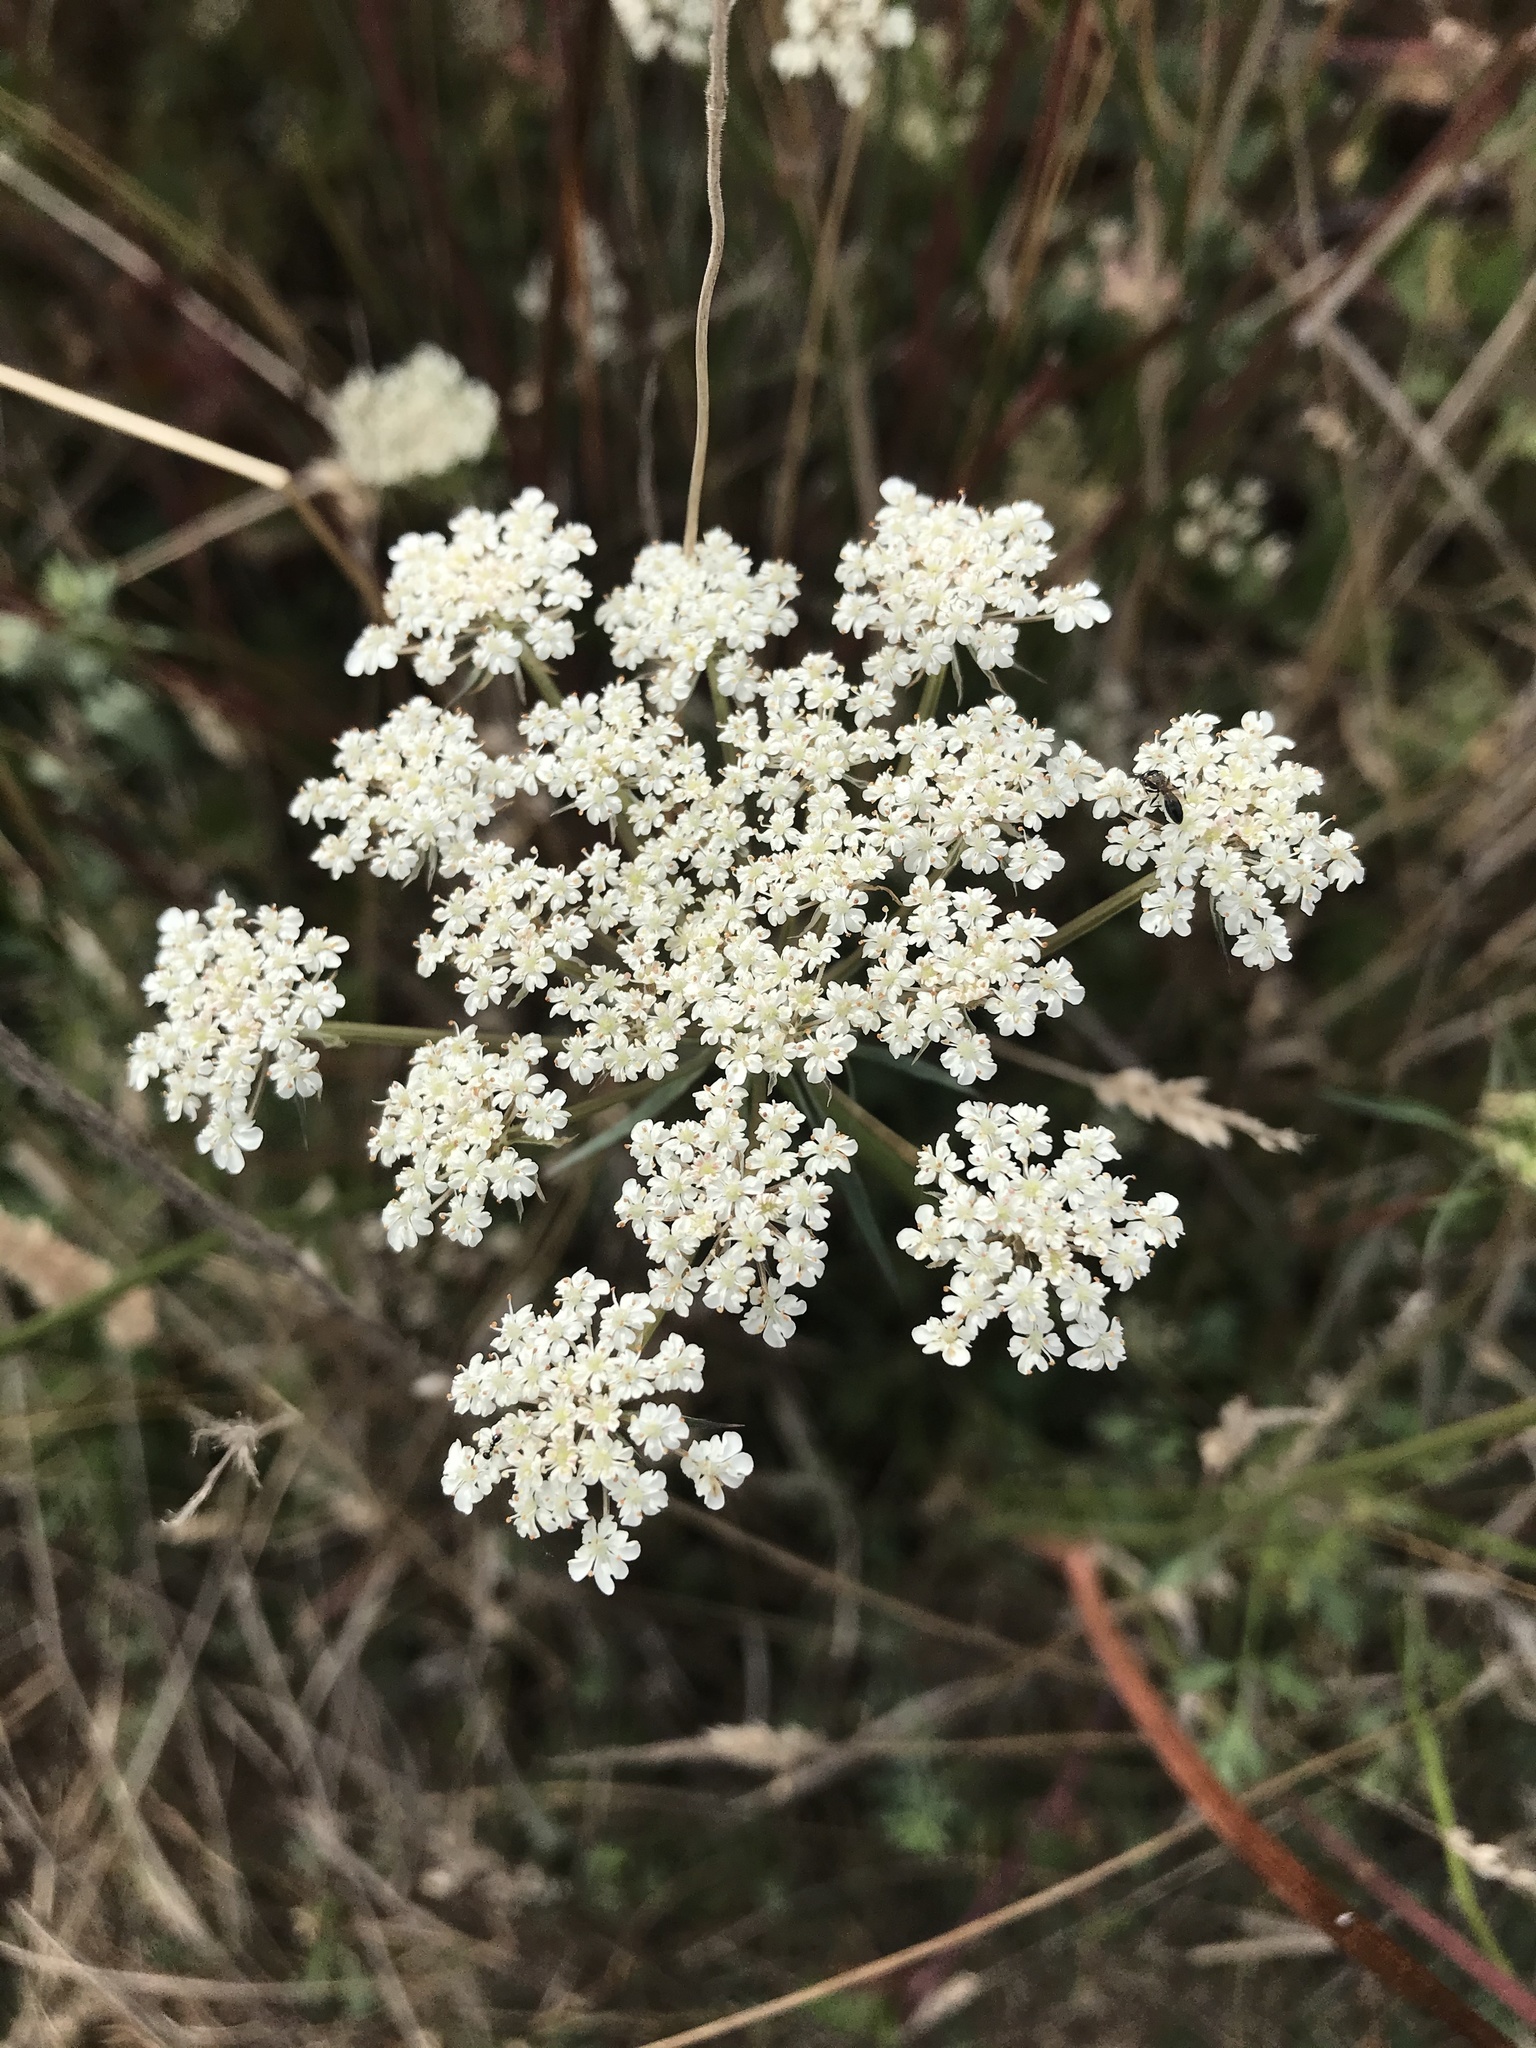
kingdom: Plantae
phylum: Tracheophyta
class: Magnoliopsida
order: Apiales
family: Apiaceae
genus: Daucus
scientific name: Daucus carota
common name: Wild carrot
